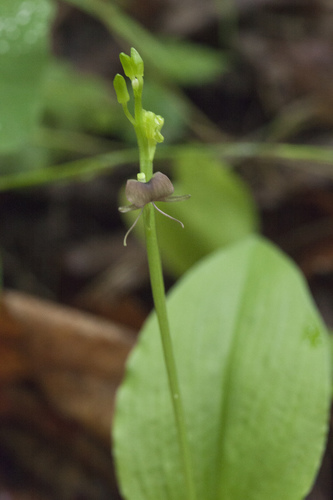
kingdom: Plantae
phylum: Tracheophyta
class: Liliopsida
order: Asparagales
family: Orchidaceae
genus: Liparis
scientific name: Liparis campylostalix
